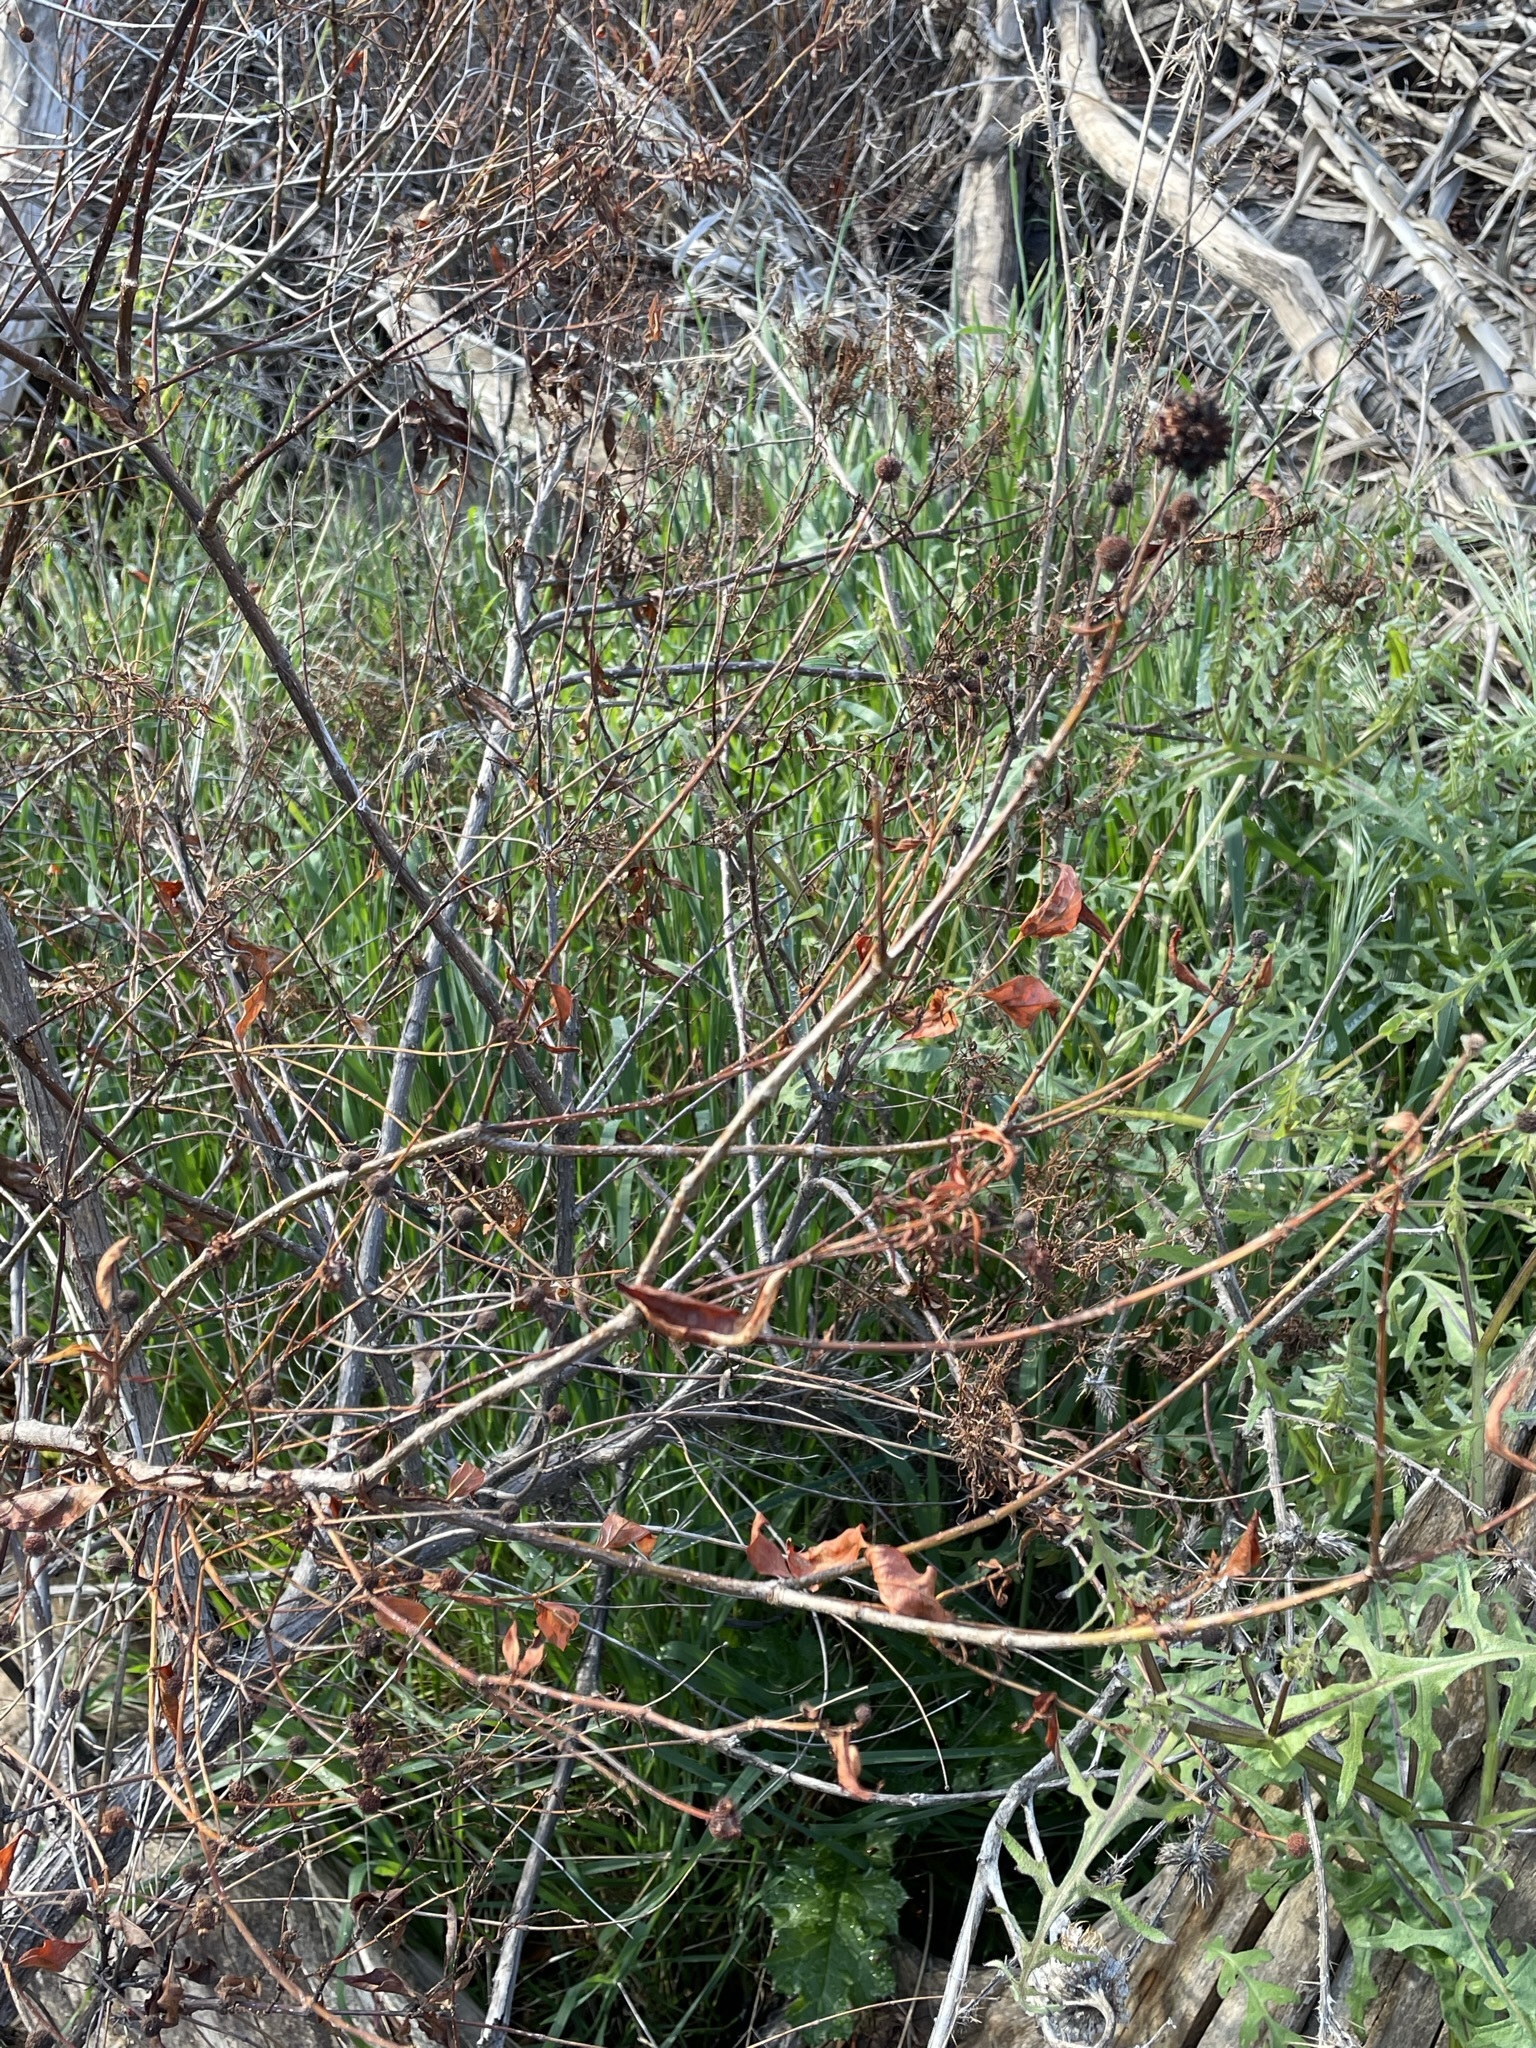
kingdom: Plantae
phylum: Tracheophyta
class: Magnoliopsida
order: Gentianales
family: Rubiaceae
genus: Cephalanthus
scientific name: Cephalanthus occidentalis
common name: Button-willow
